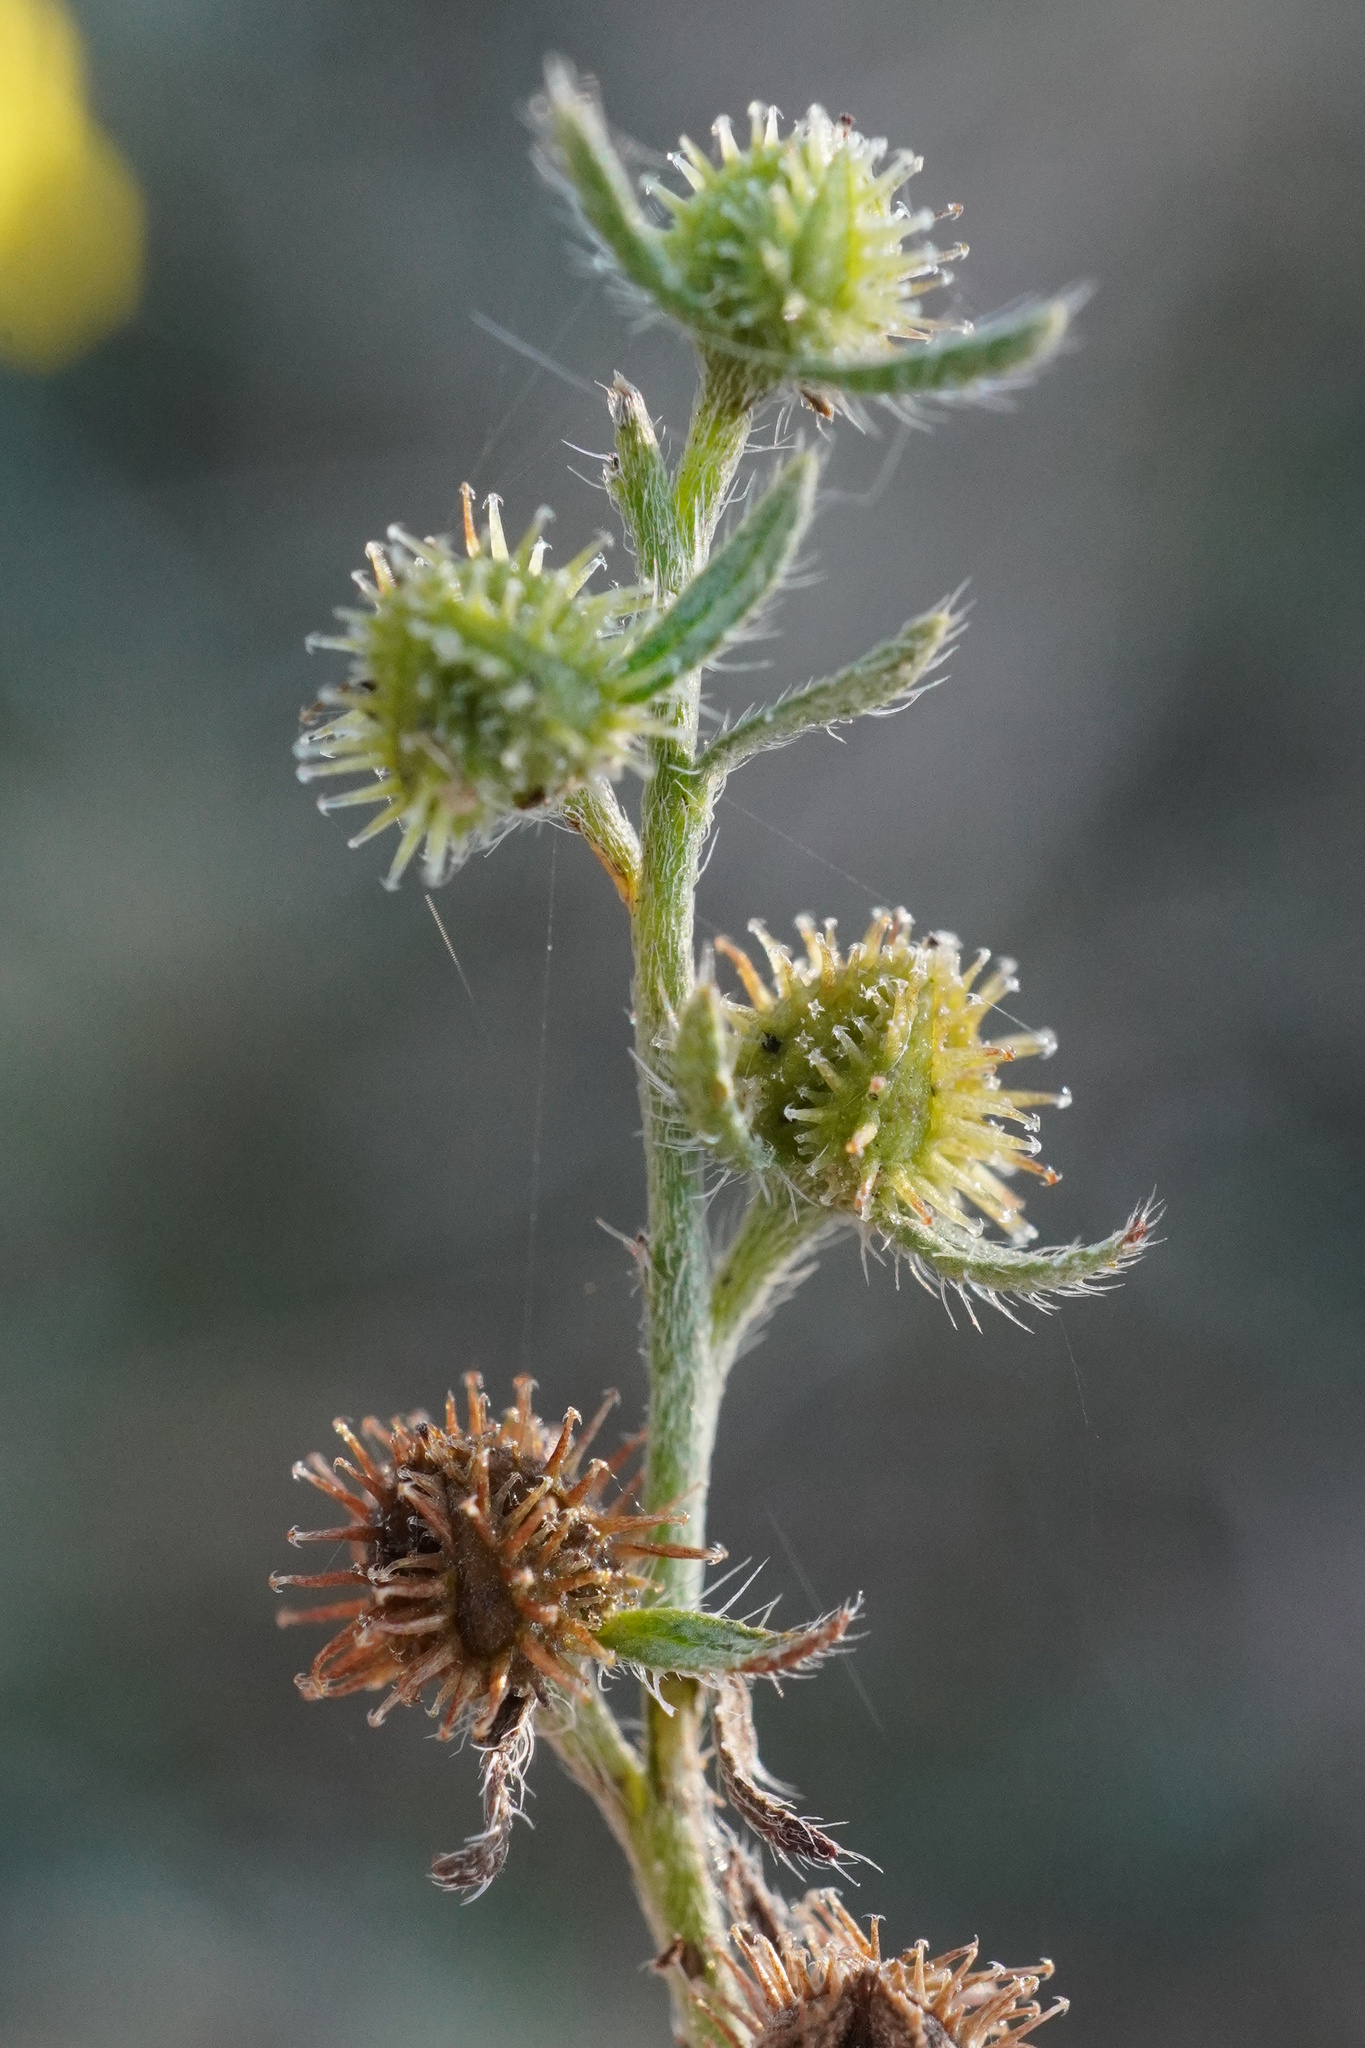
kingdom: Plantae
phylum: Tracheophyta
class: Magnoliopsida
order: Boraginales
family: Boraginaceae
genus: Lappula
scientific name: Lappula squarrosa
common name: European stickseed
